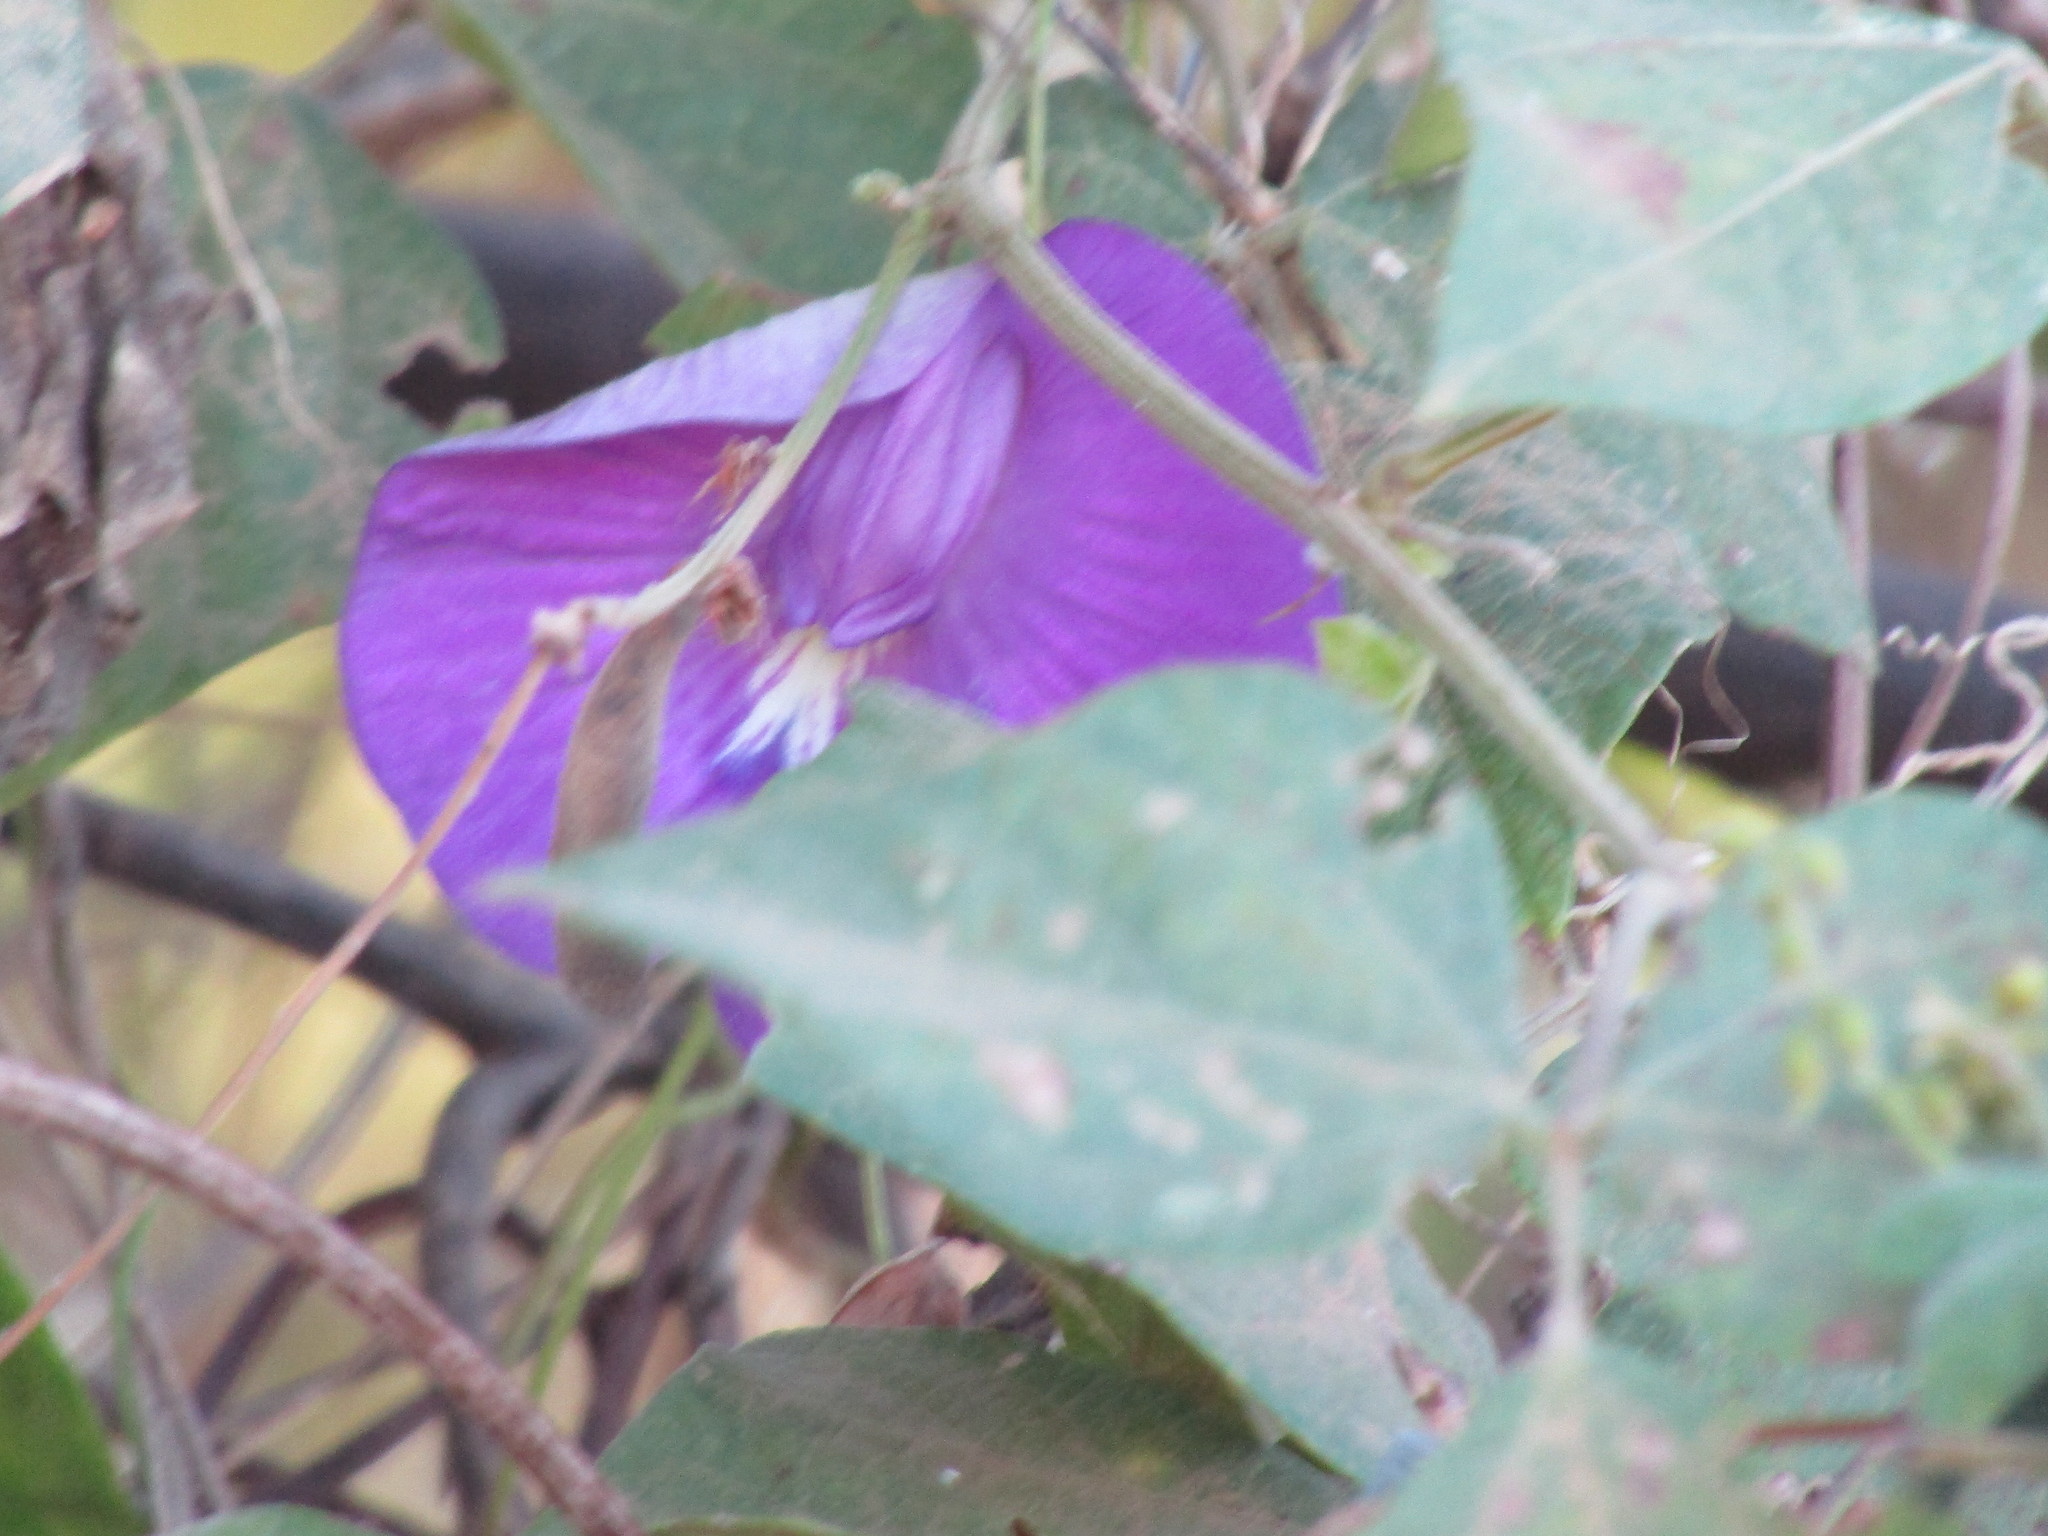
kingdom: Plantae
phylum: Tracheophyta
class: Magnoliopsida
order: Fabales
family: Fabaceae
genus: Centrosema
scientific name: Centrosema brasilianum
